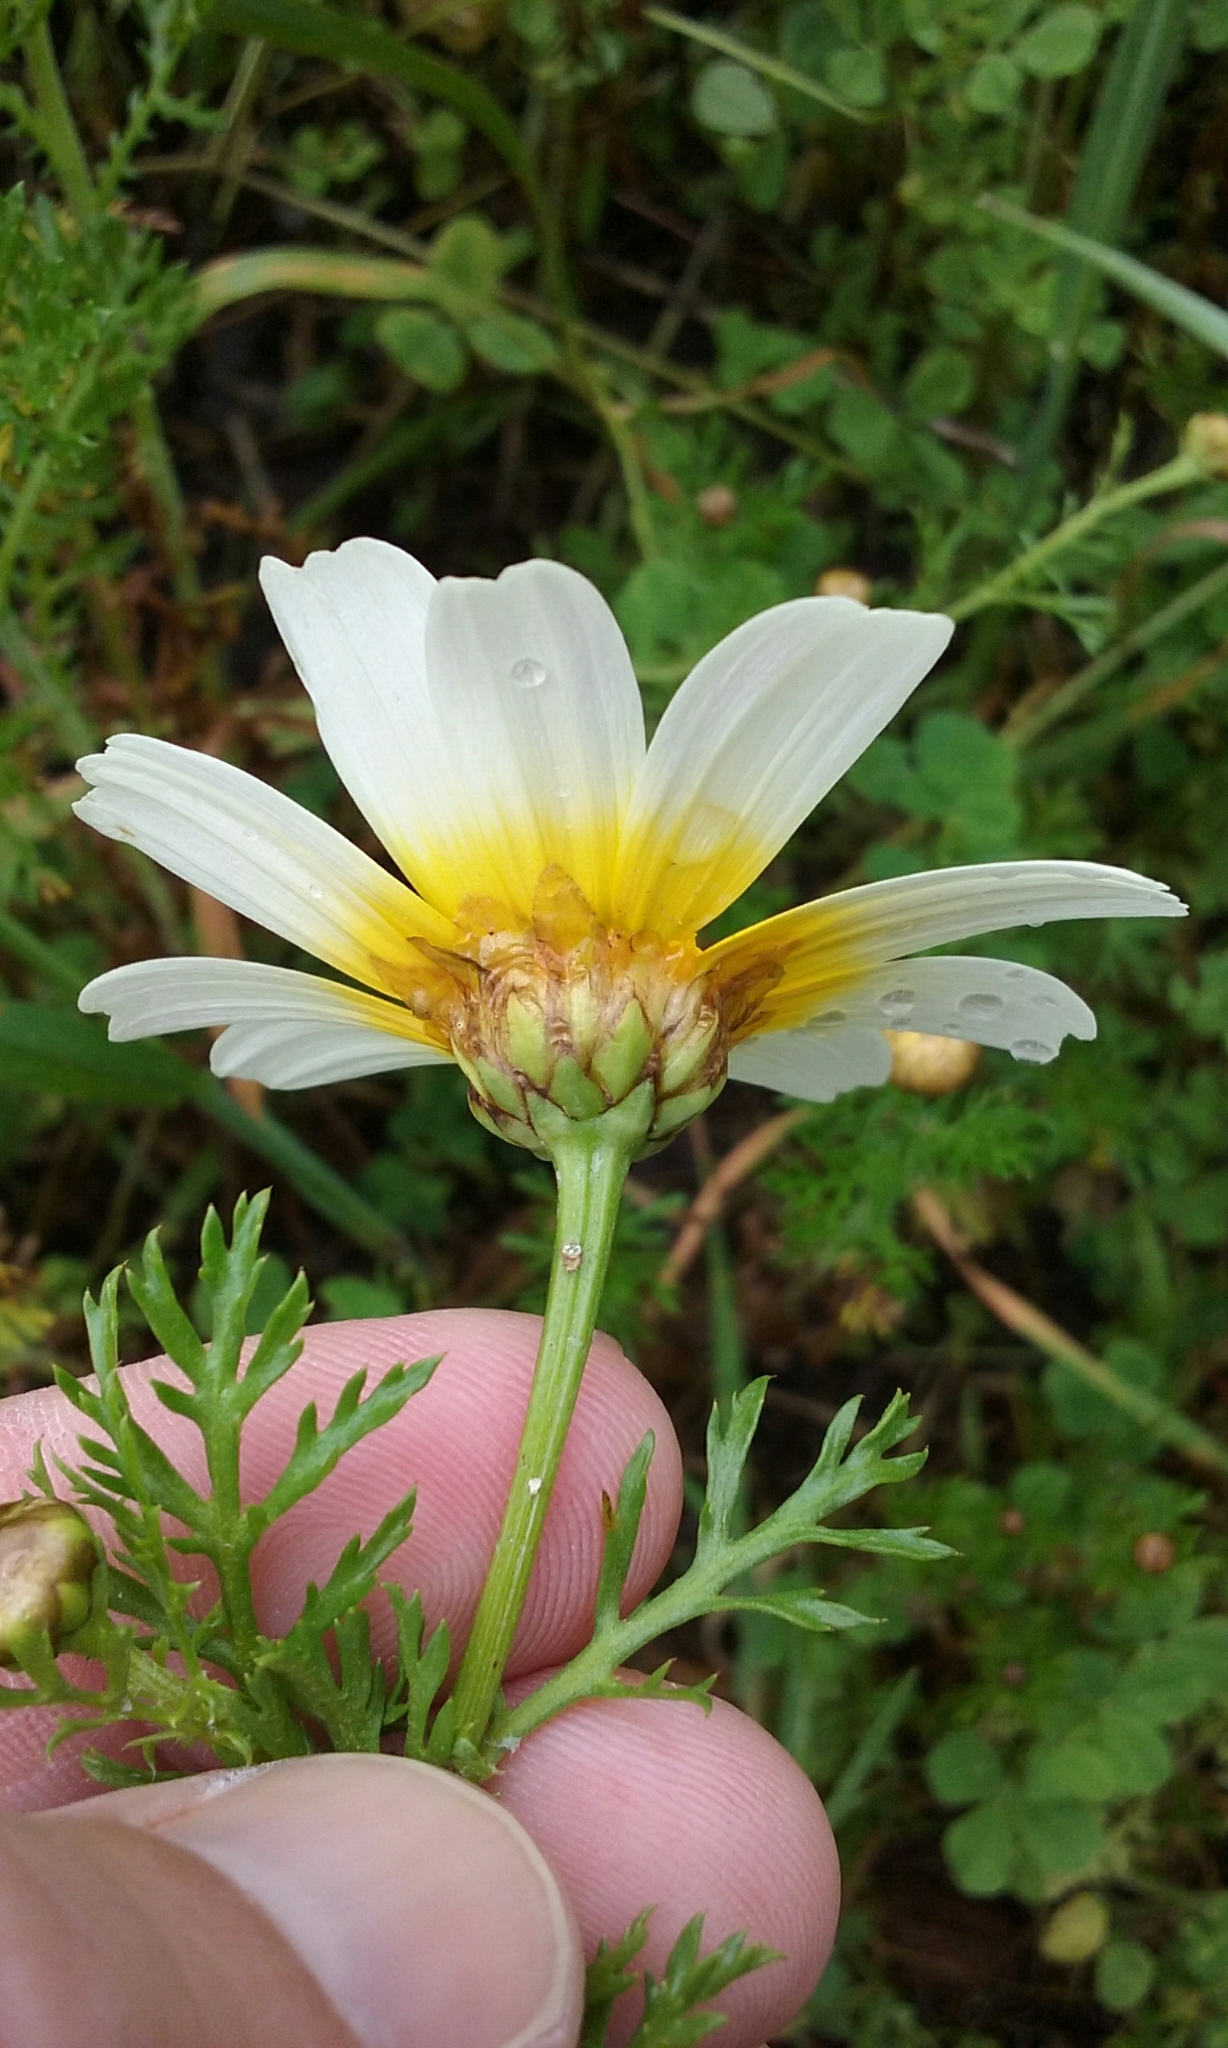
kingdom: Plantae
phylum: Tracheophyta
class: Magnoliopsida
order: Asterales
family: Asteraceae
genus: Glebionis
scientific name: Glebionis coronaria
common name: Crowndaisy
